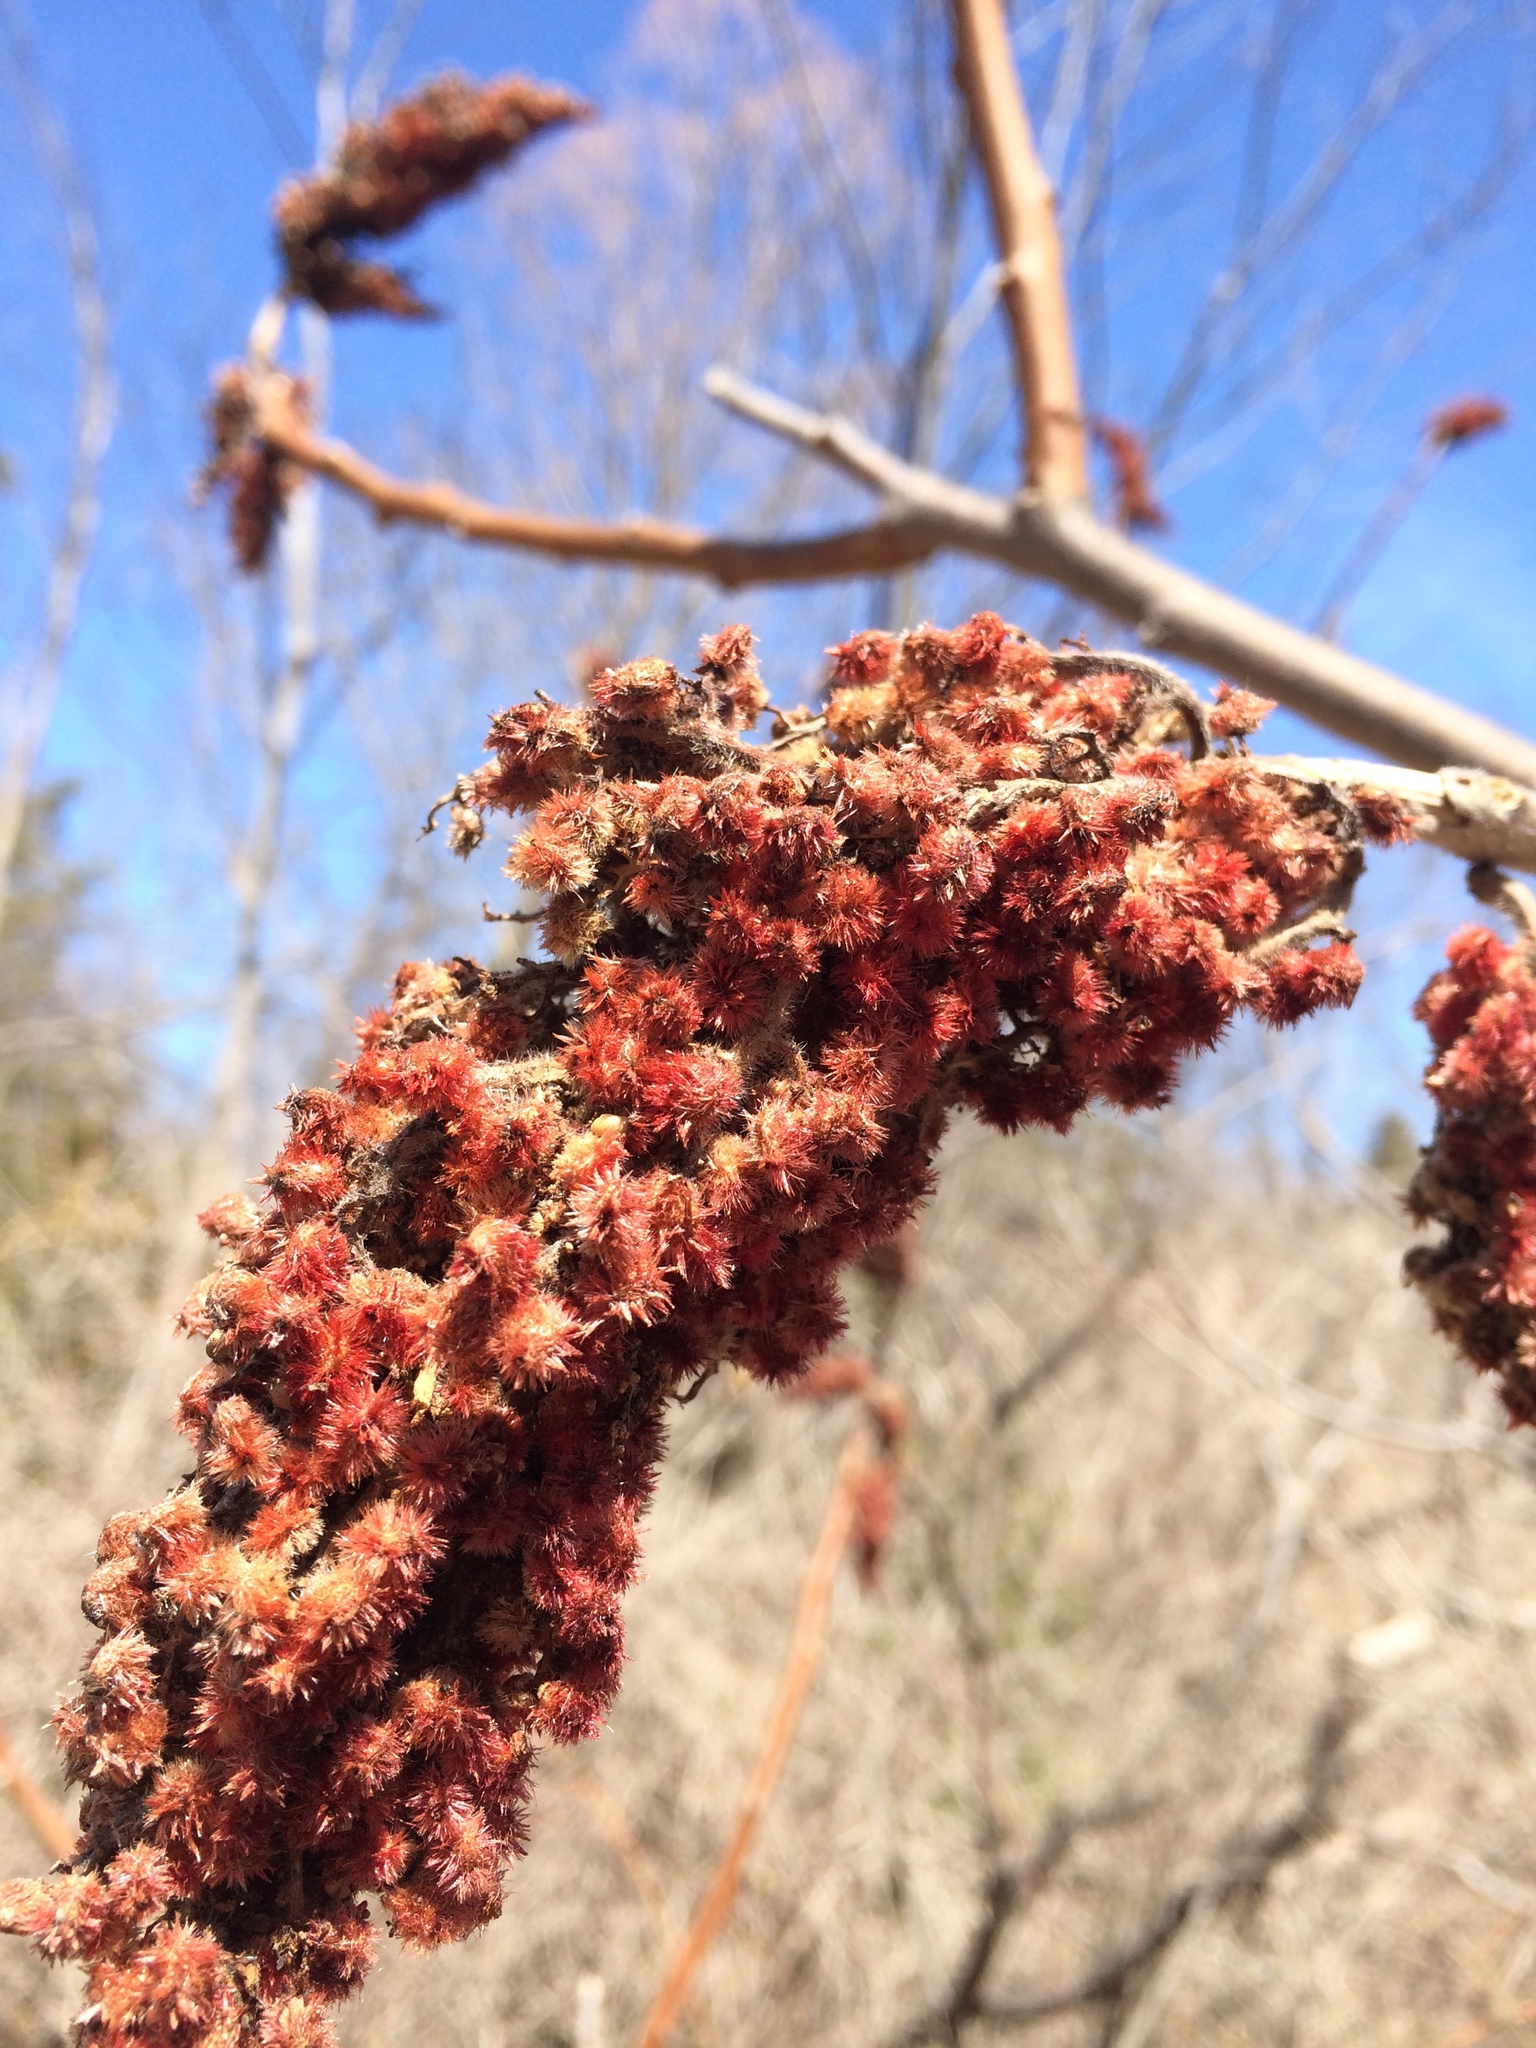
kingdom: Plantae
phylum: Tracheophyta
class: Magnoliopsida
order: Sapindales
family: Anacardiaceae
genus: Rhus
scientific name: Rhus typhina
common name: Staghorn sumac
